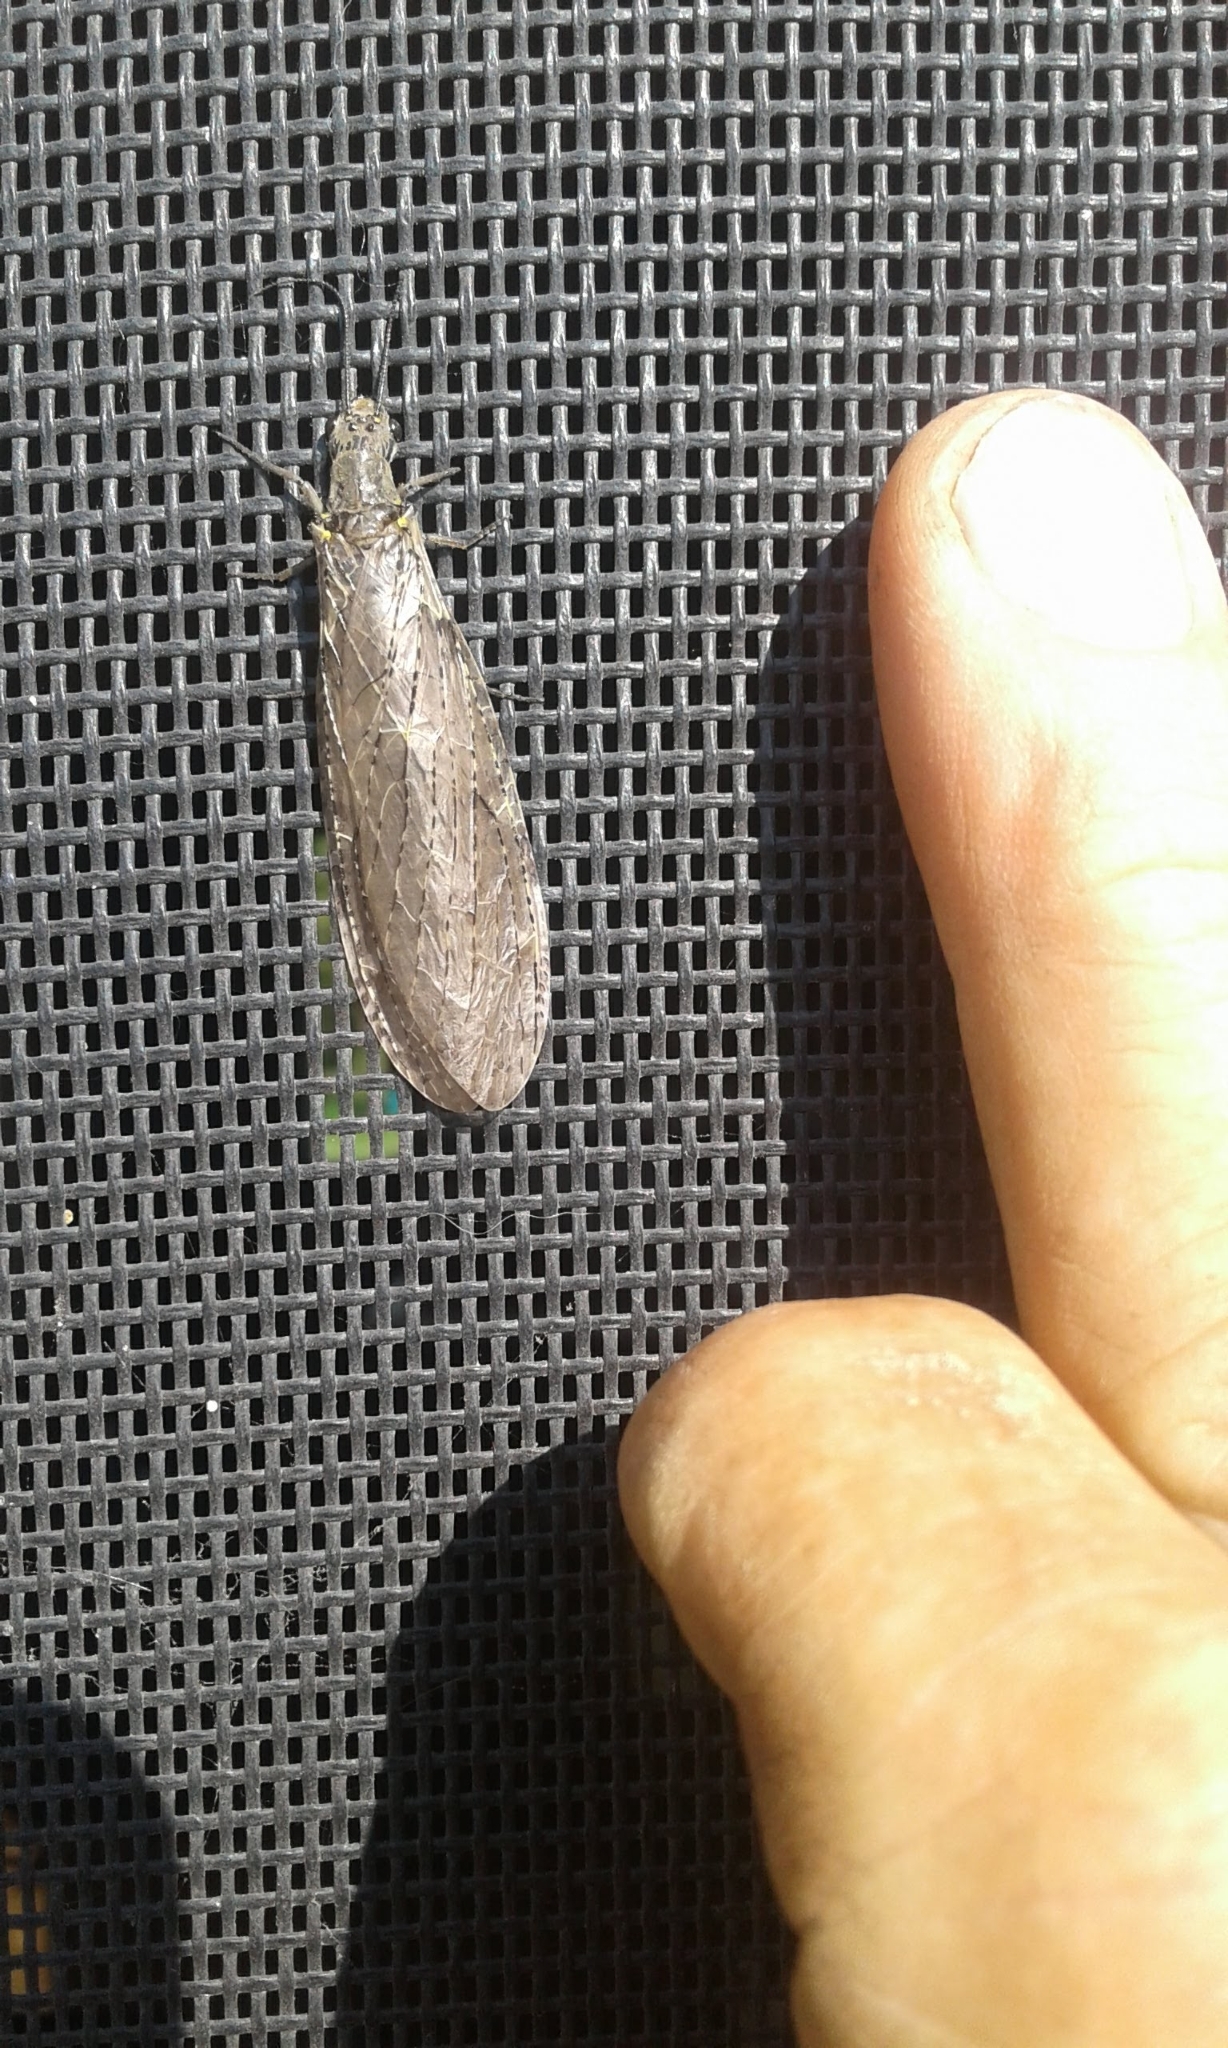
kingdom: Animalia
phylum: Arthropoda
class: Insecta
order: Megaloptera
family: Corydalidae
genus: Chauliodes
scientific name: Chauliodes rastricornis
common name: Spring fishfly
